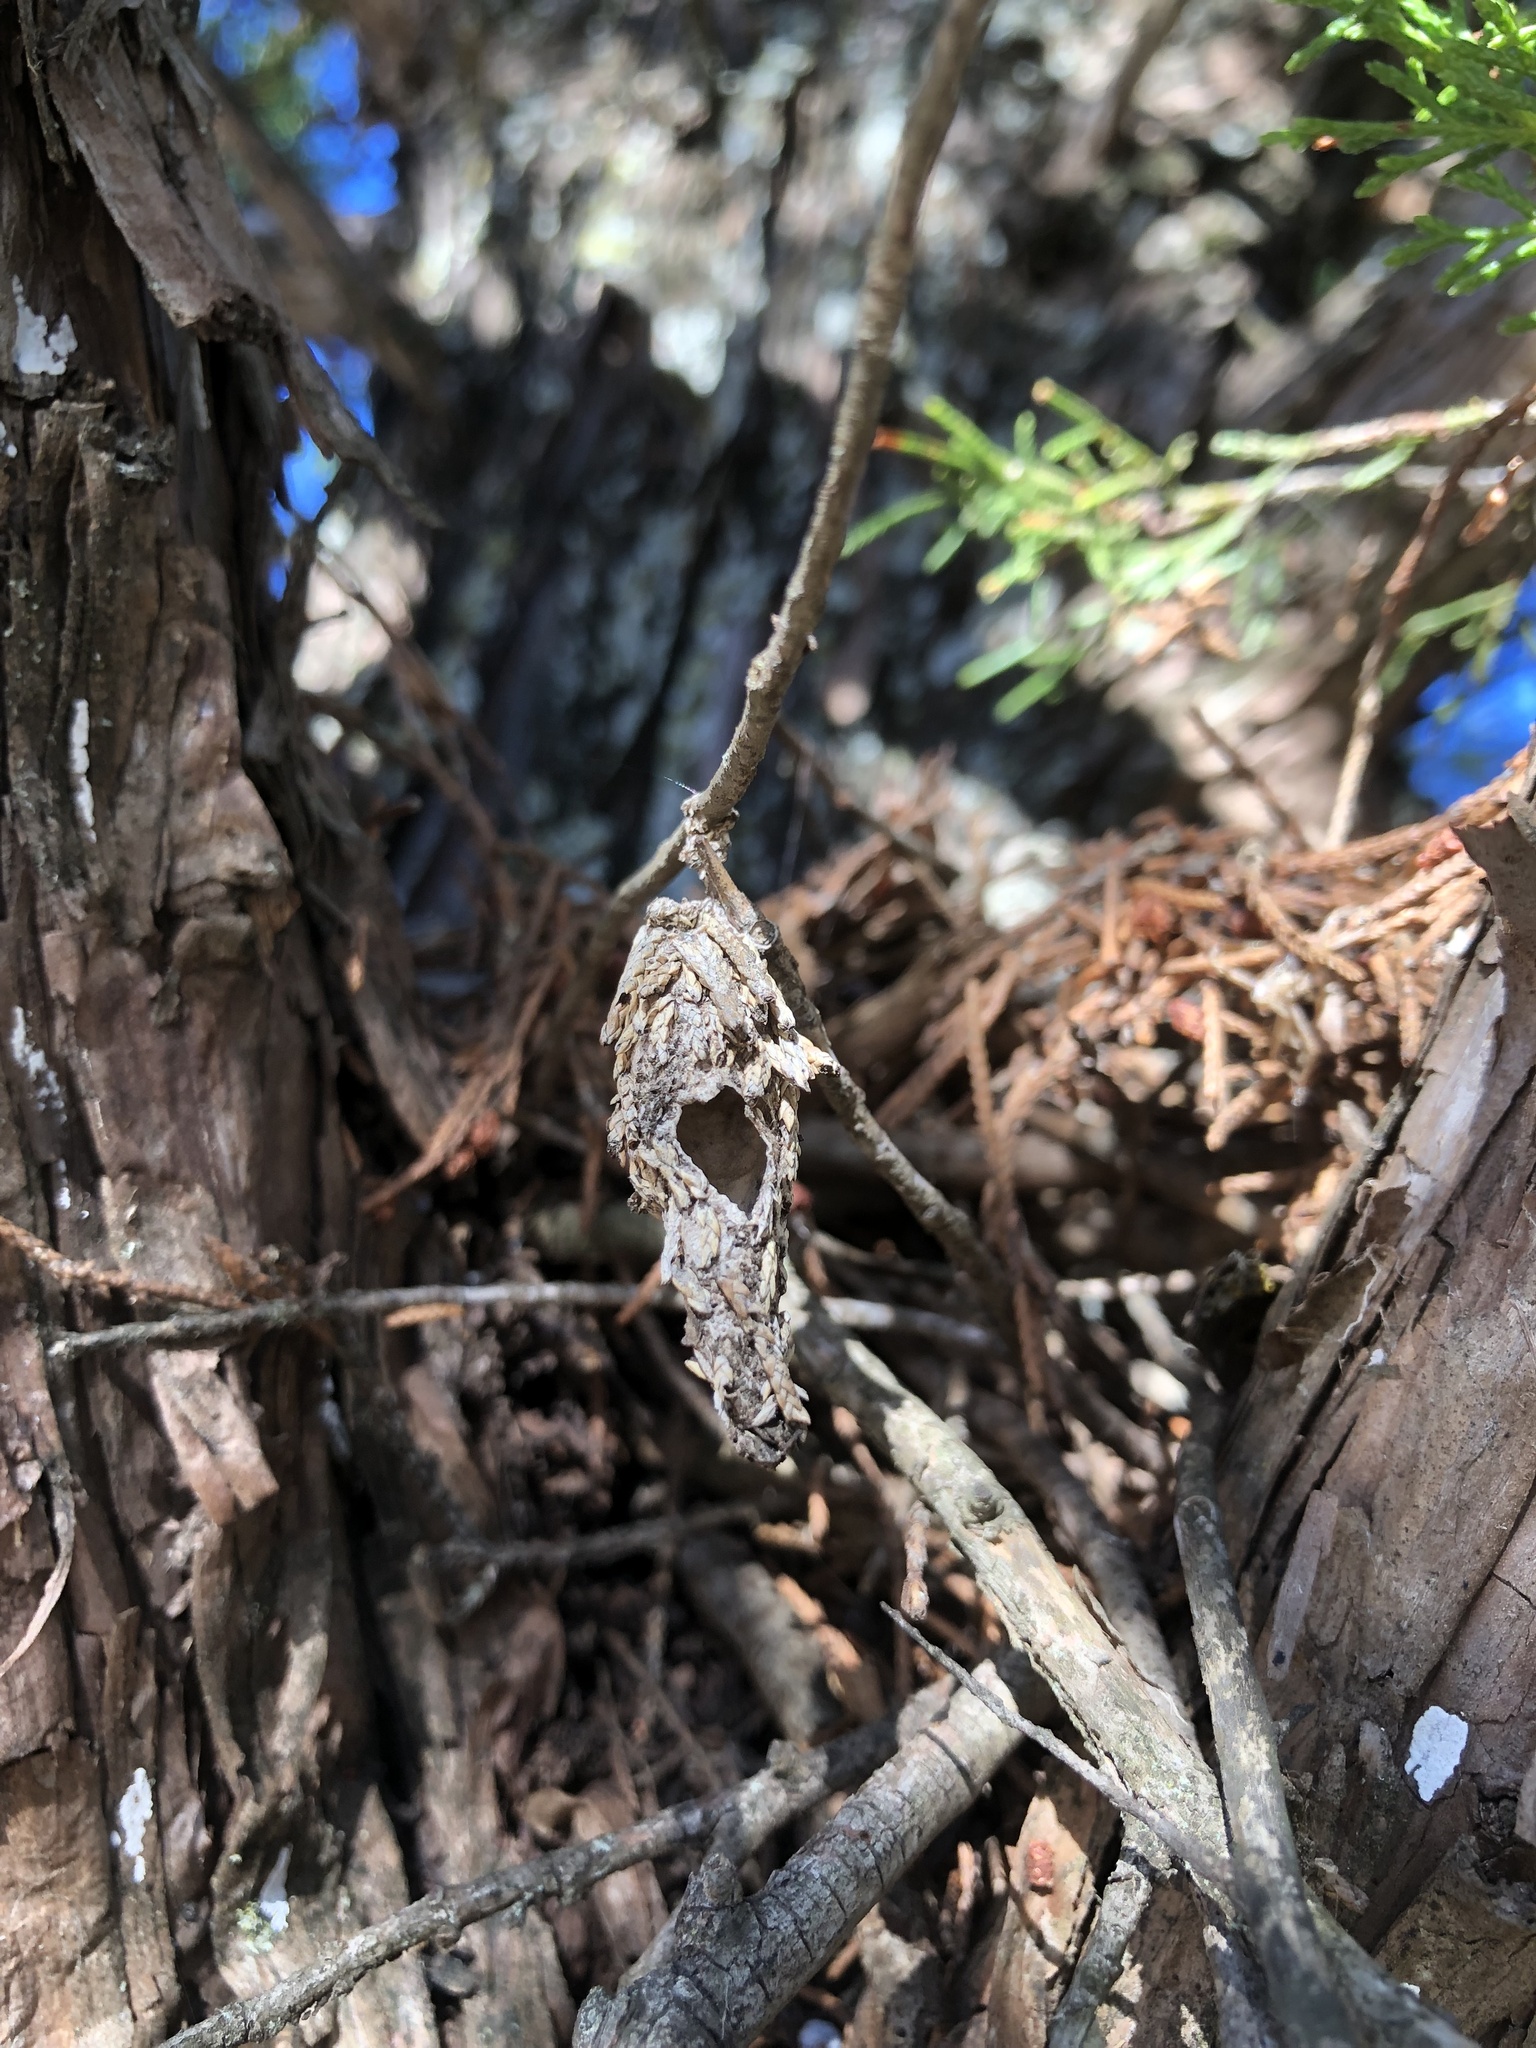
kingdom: Animalia
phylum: Arthropoda
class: Insecta
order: Lepidoptera
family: Psychidae
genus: Thyridopteryx
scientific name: Thyridopteryx ephemeraeformis
